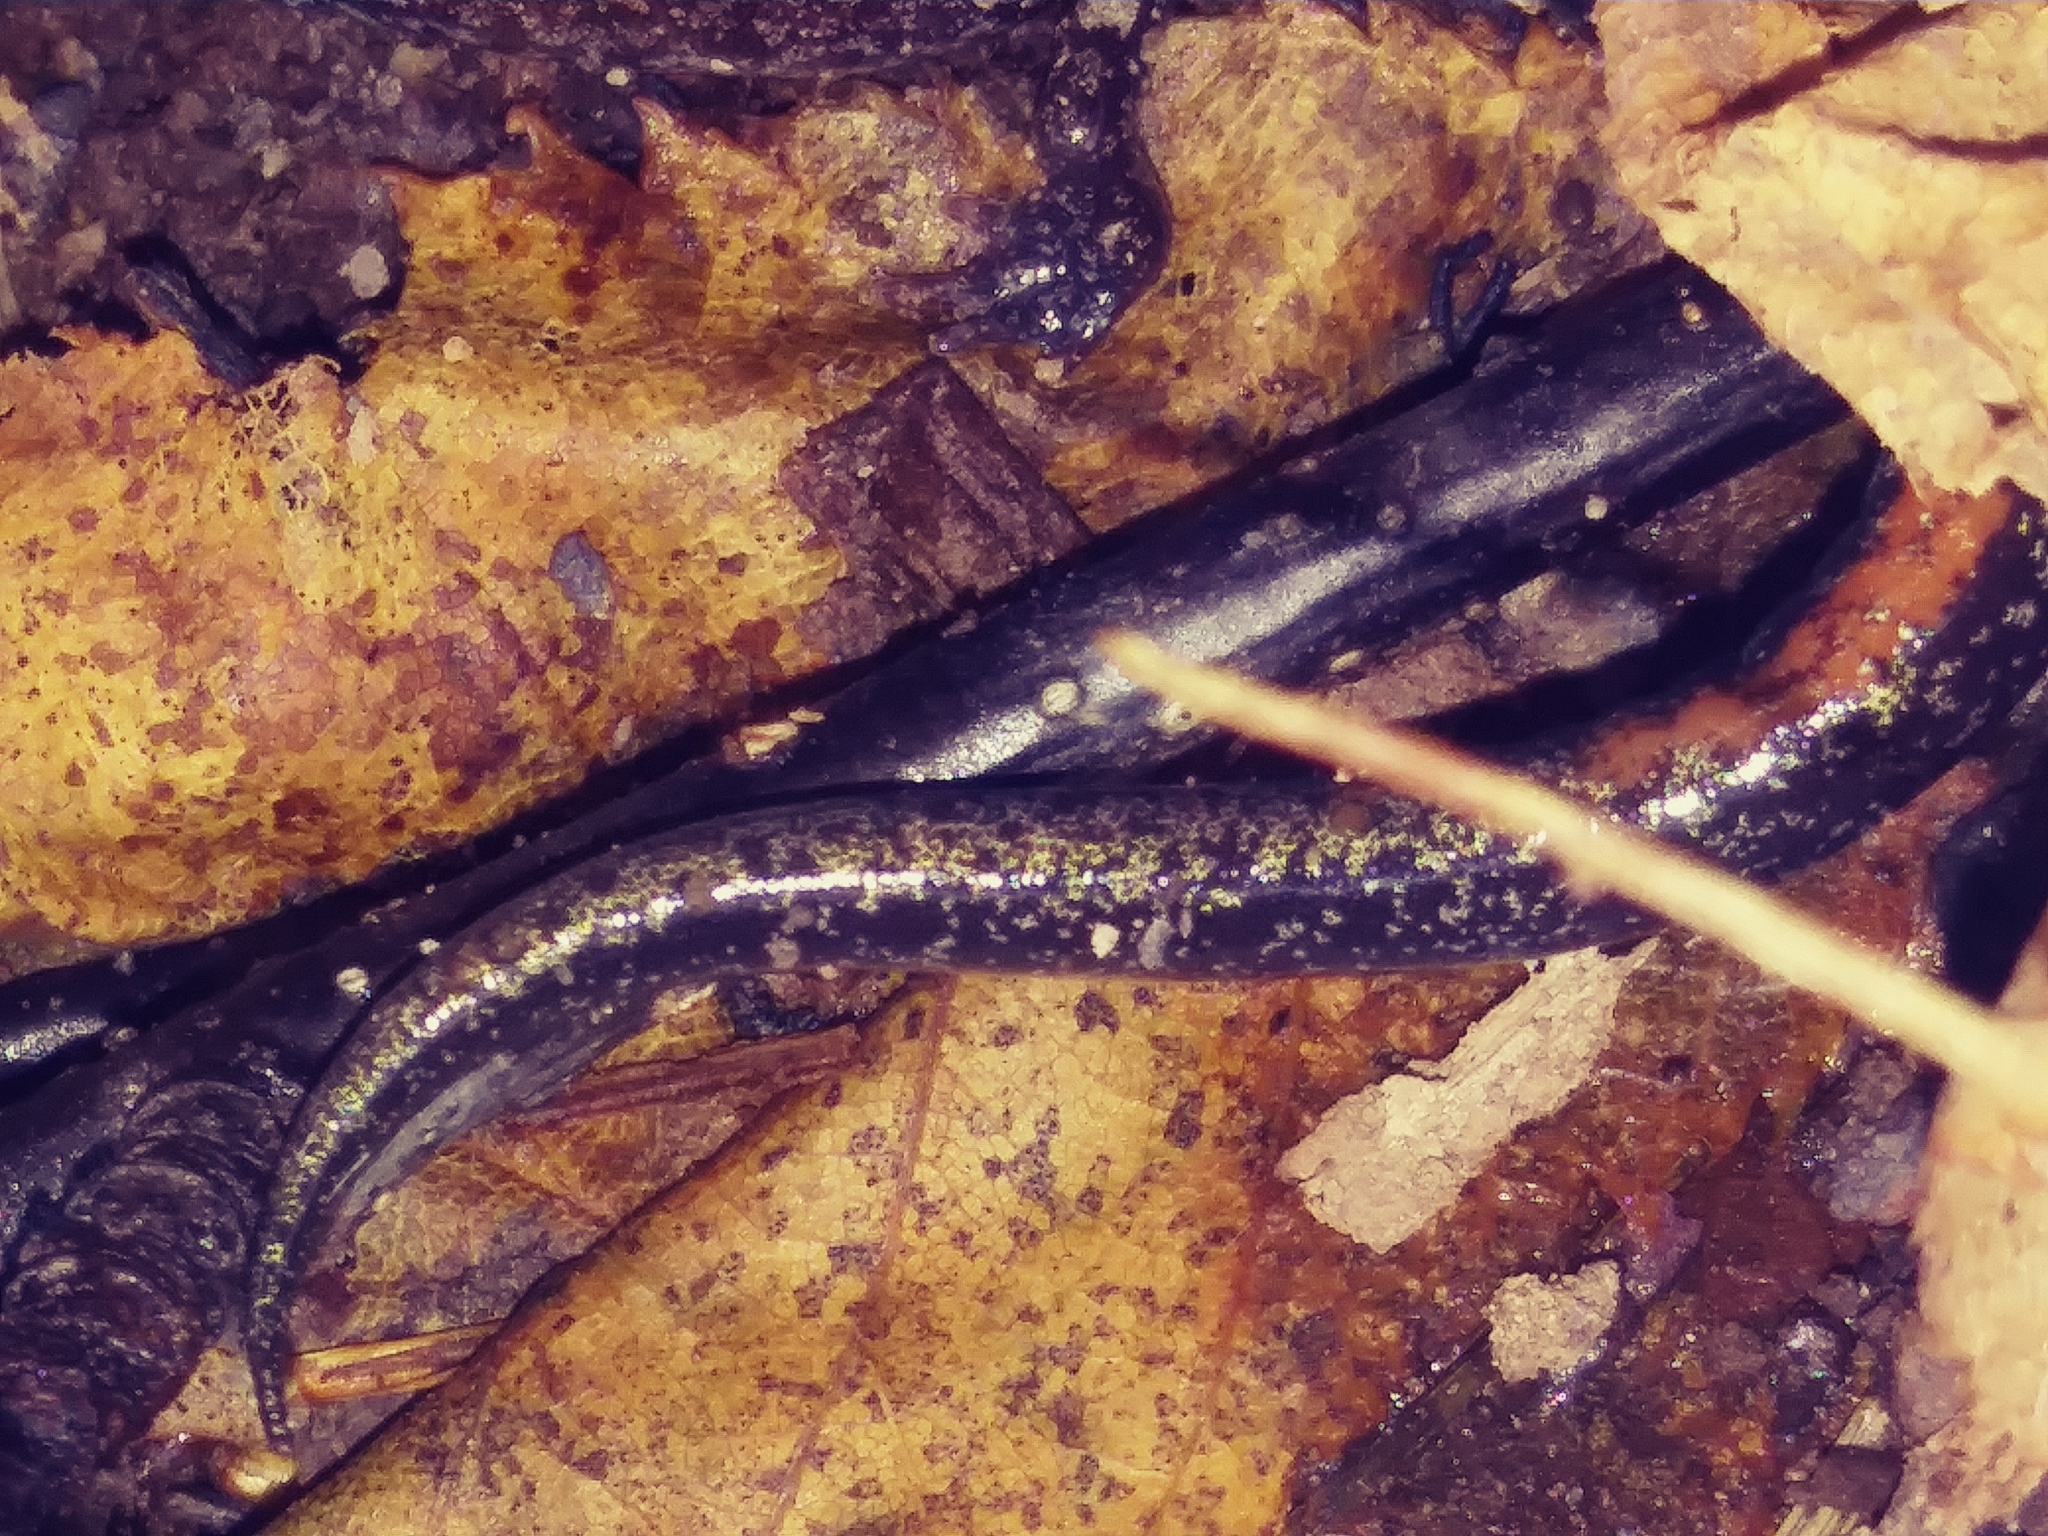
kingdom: Animalia
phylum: Chordata
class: Amphibia
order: Caudata
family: Plethodontidae
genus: Plethodon
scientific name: Plethodon cinereus
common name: Redback salamander
